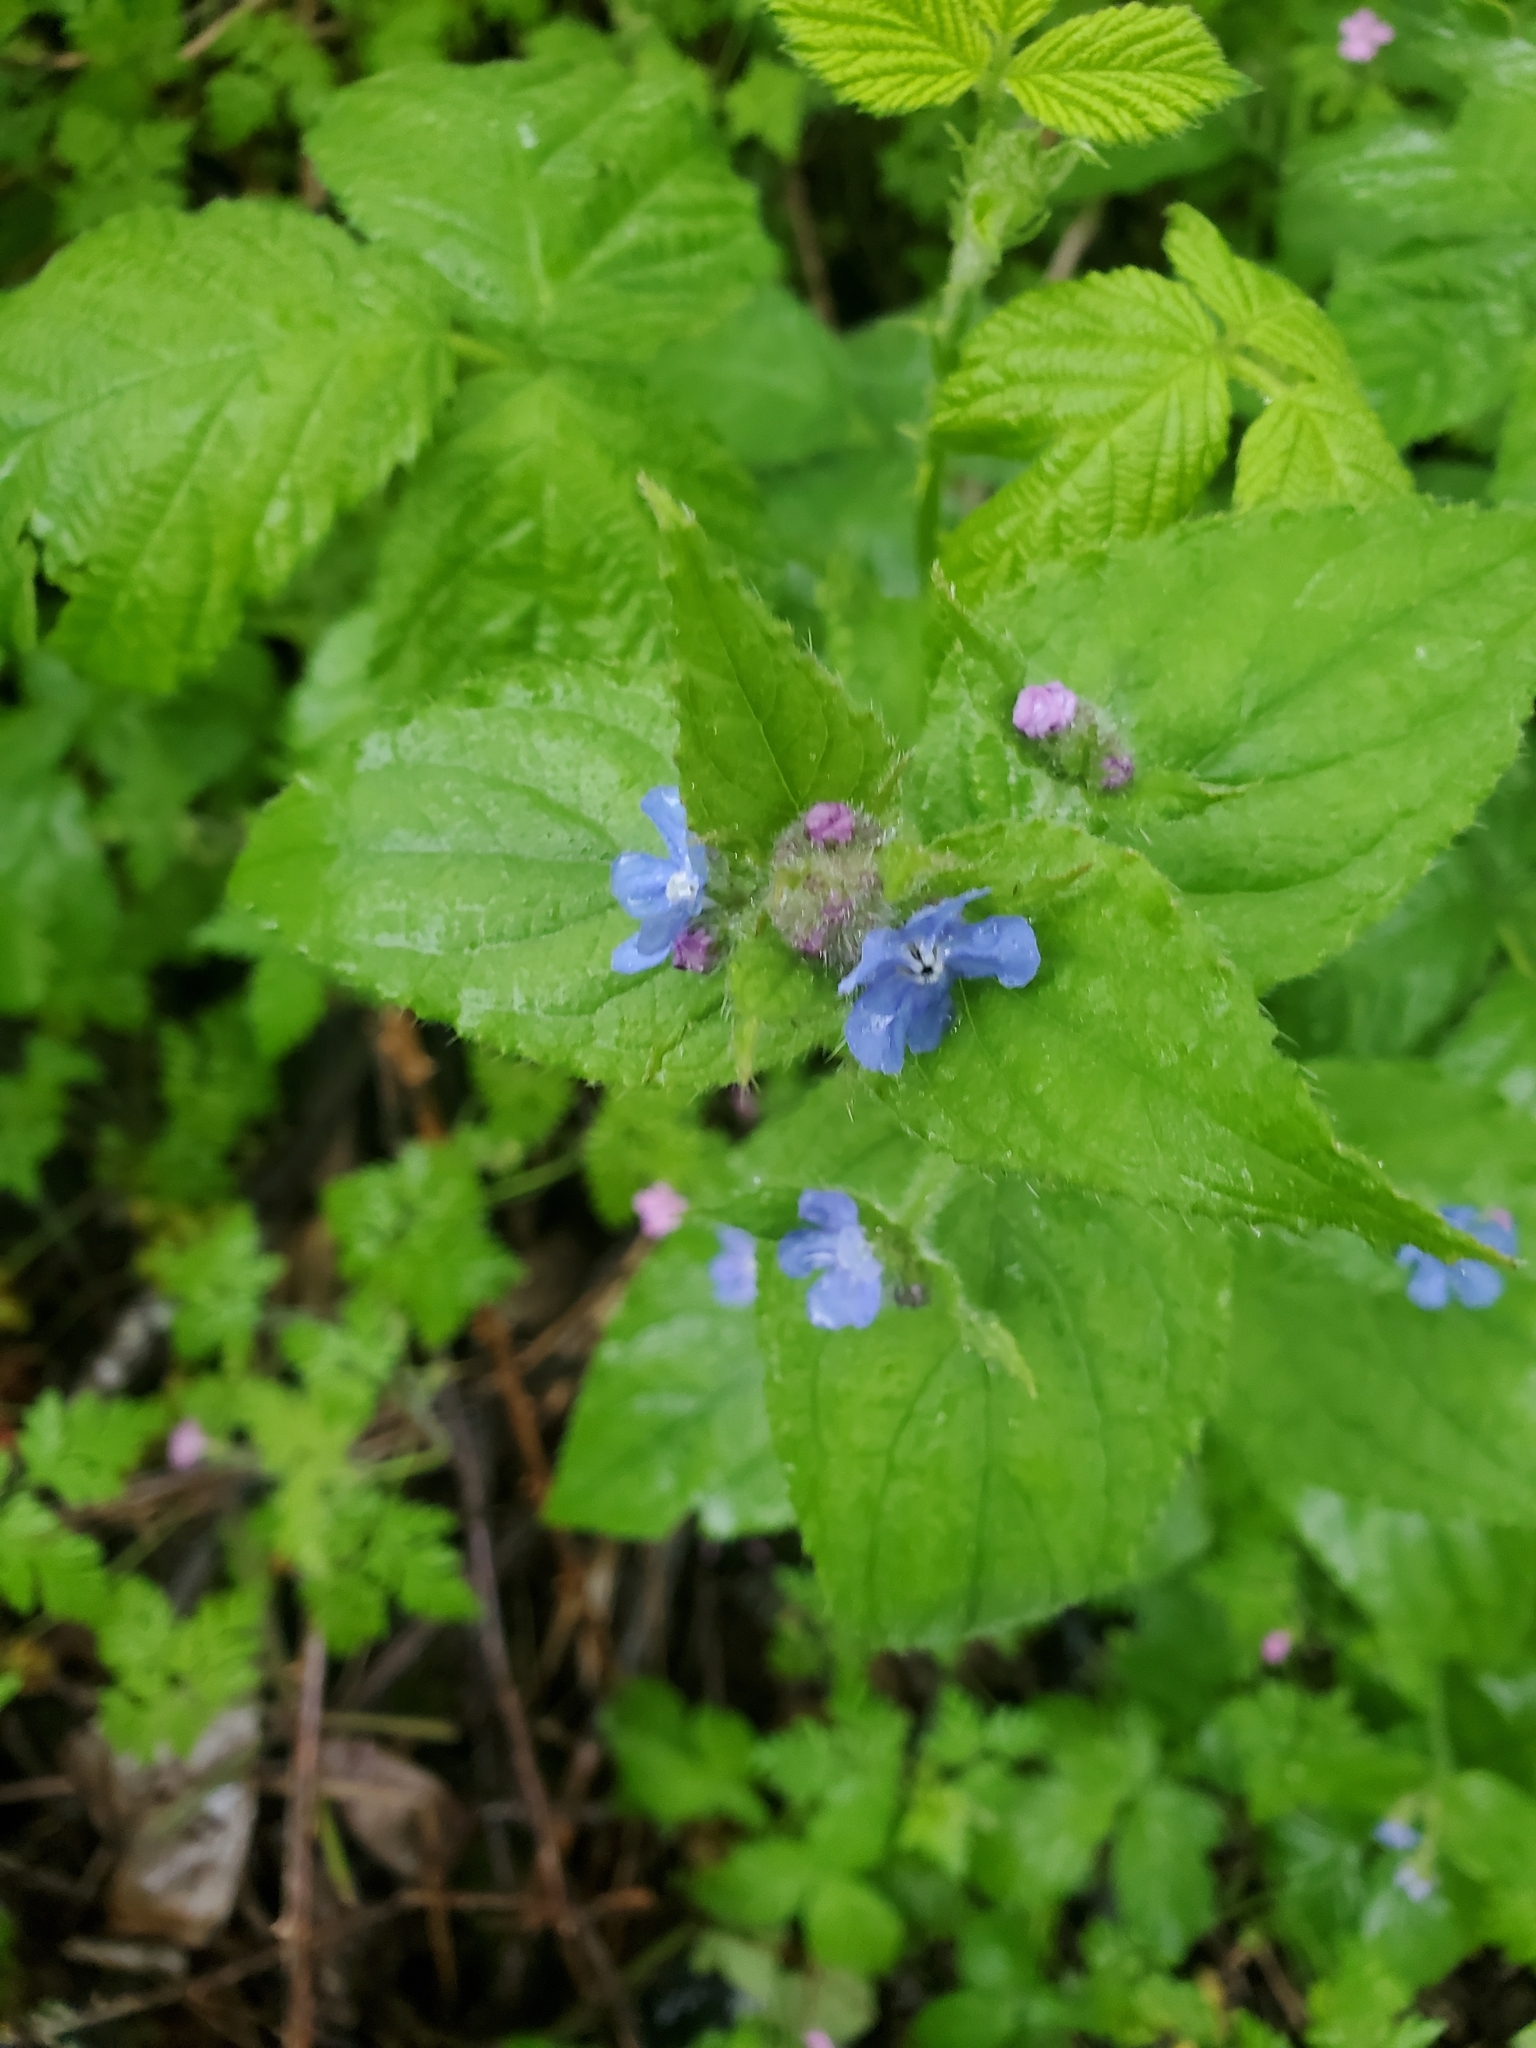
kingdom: Plantae
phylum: Tracheophyta
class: Magnoliopsida
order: Boraginales
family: Boraginaceae
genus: Pentaglottis
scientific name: Pentaglottis sempervirens
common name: Green alkanet
